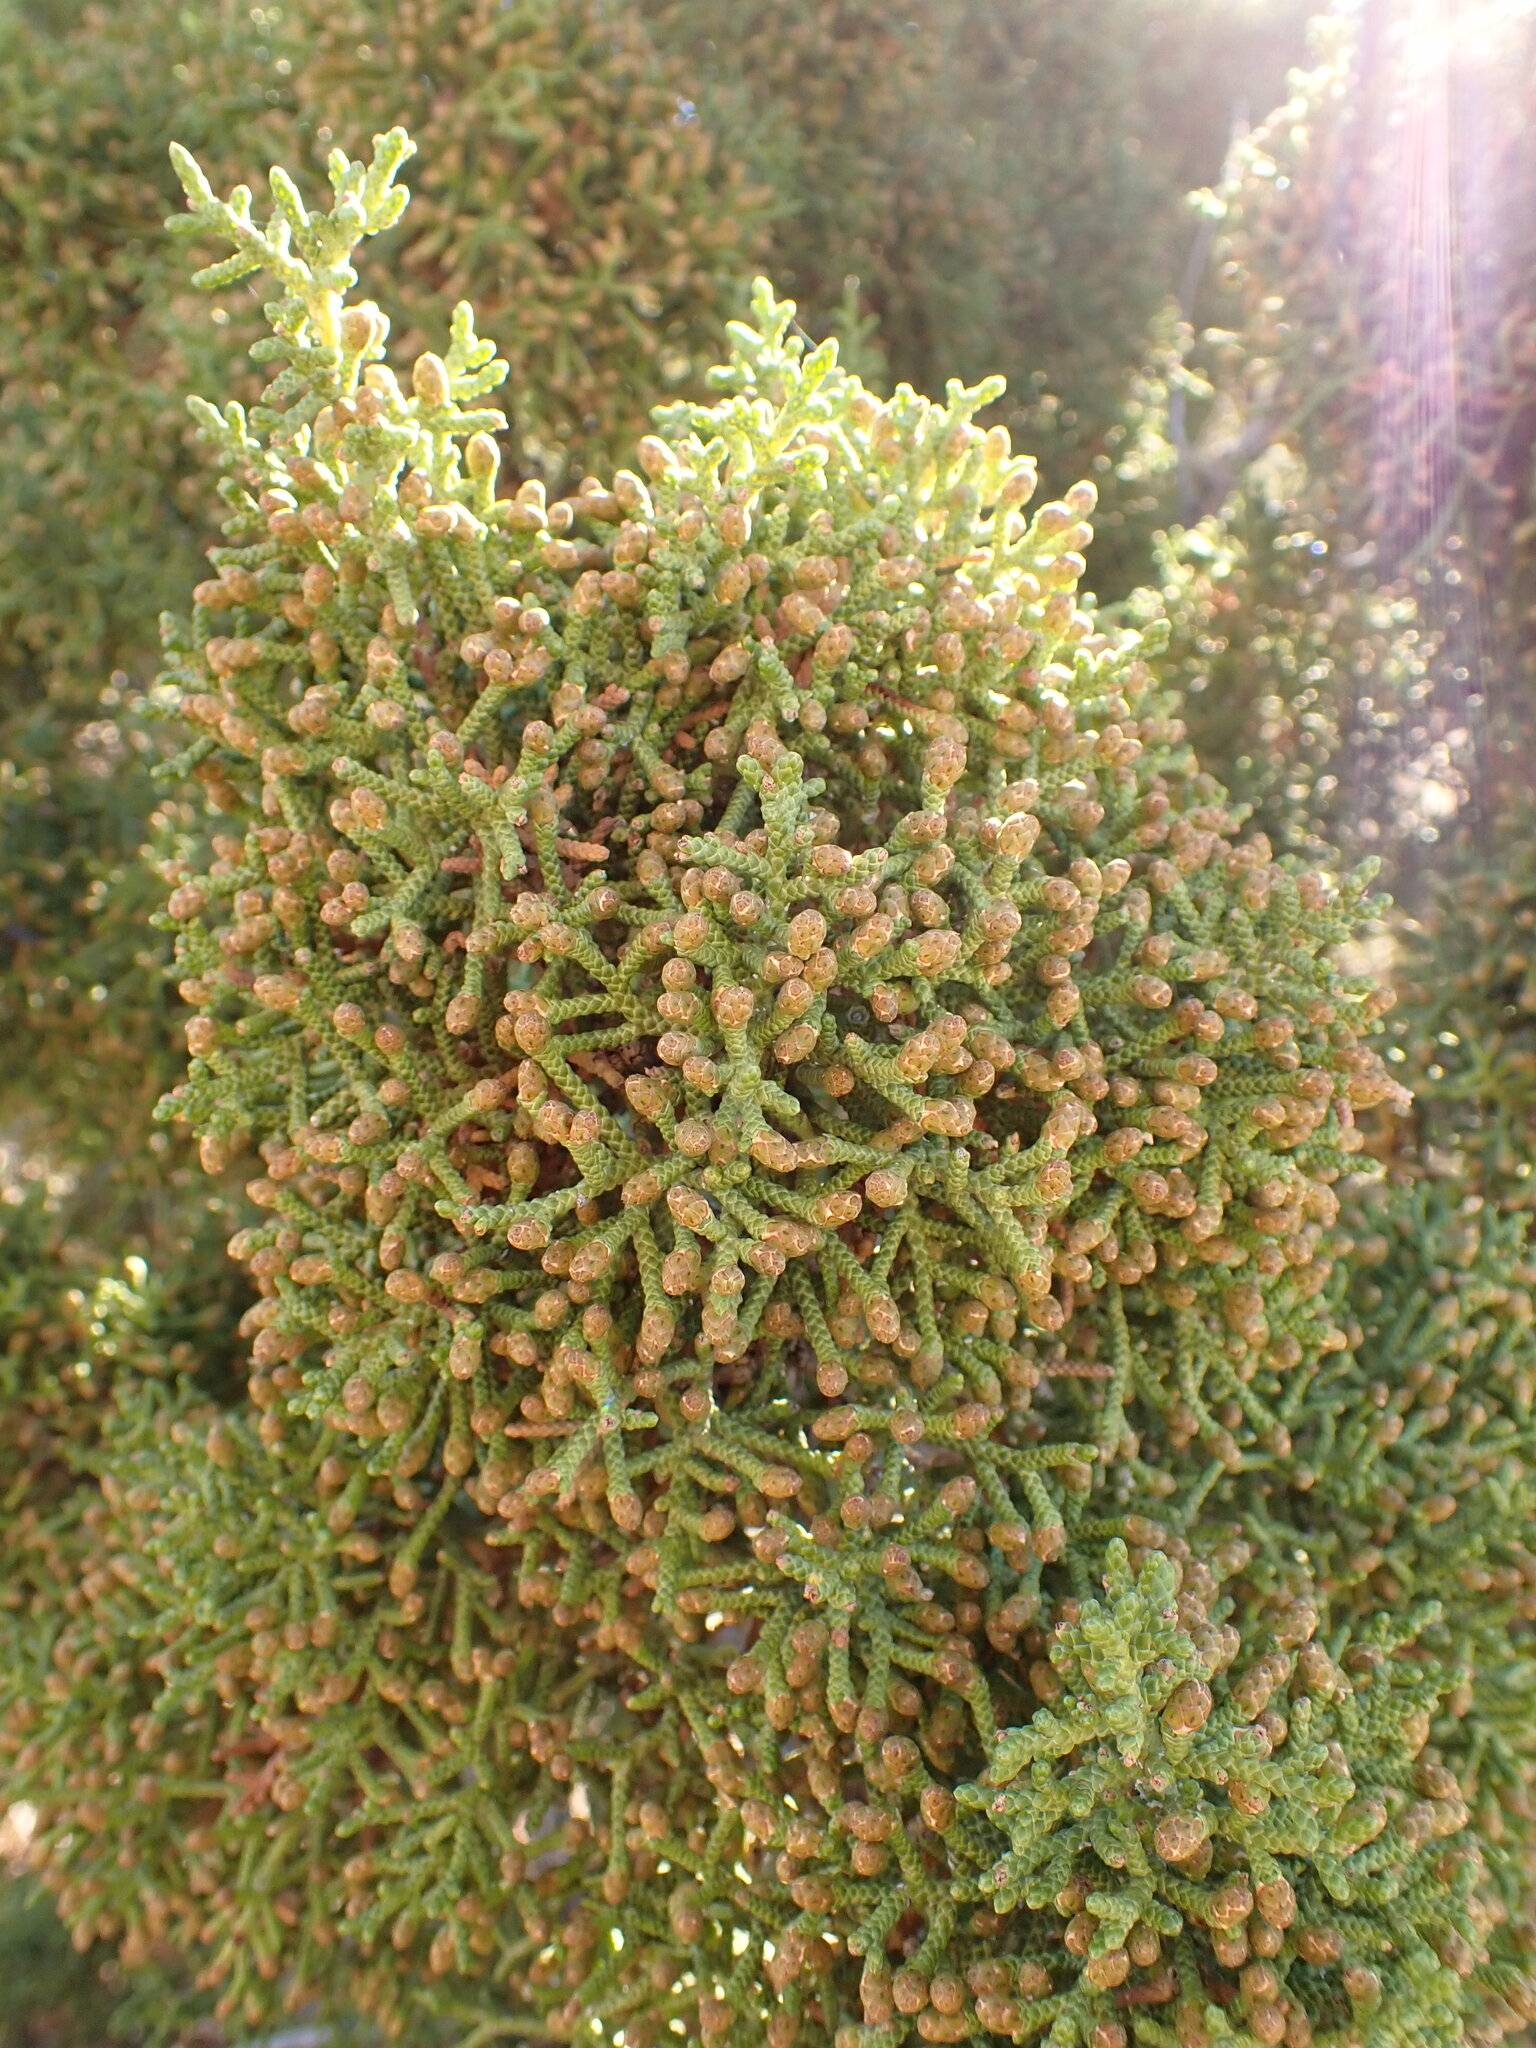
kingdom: Plantae
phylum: Tracheophyta
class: Pinopsida
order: Pinales
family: Cupressaceae
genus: Juniperus
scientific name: Juniperus californica
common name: California juniper
